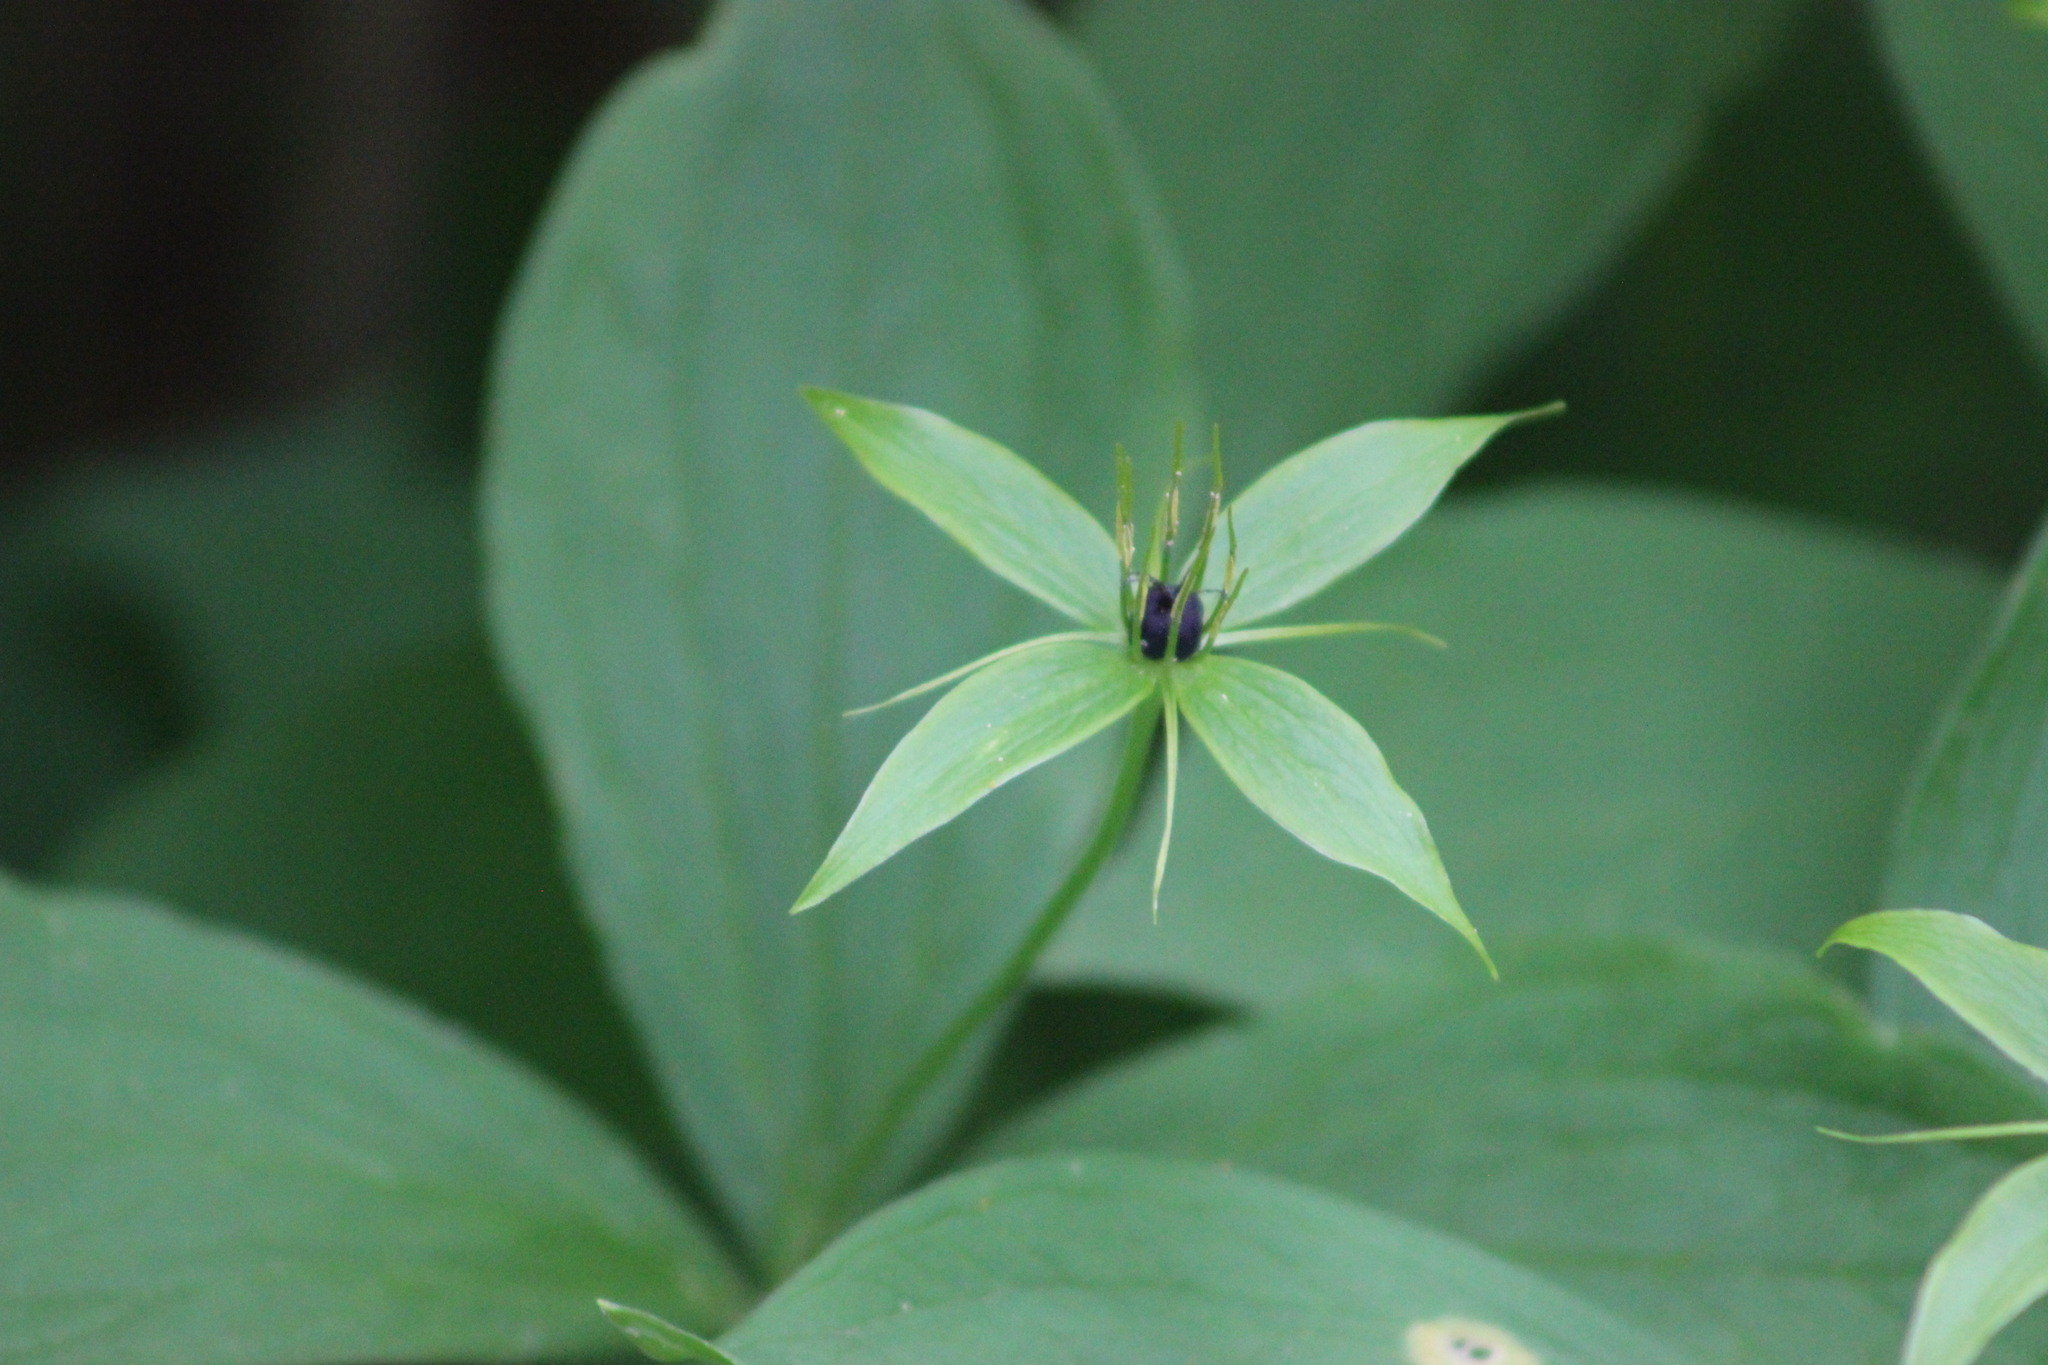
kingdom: Plantae
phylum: Tracheophyta
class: Liliopsida
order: Liliales
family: Melanthiaceae
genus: Paris
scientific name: Paris quadrifolia
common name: Herb-paris
